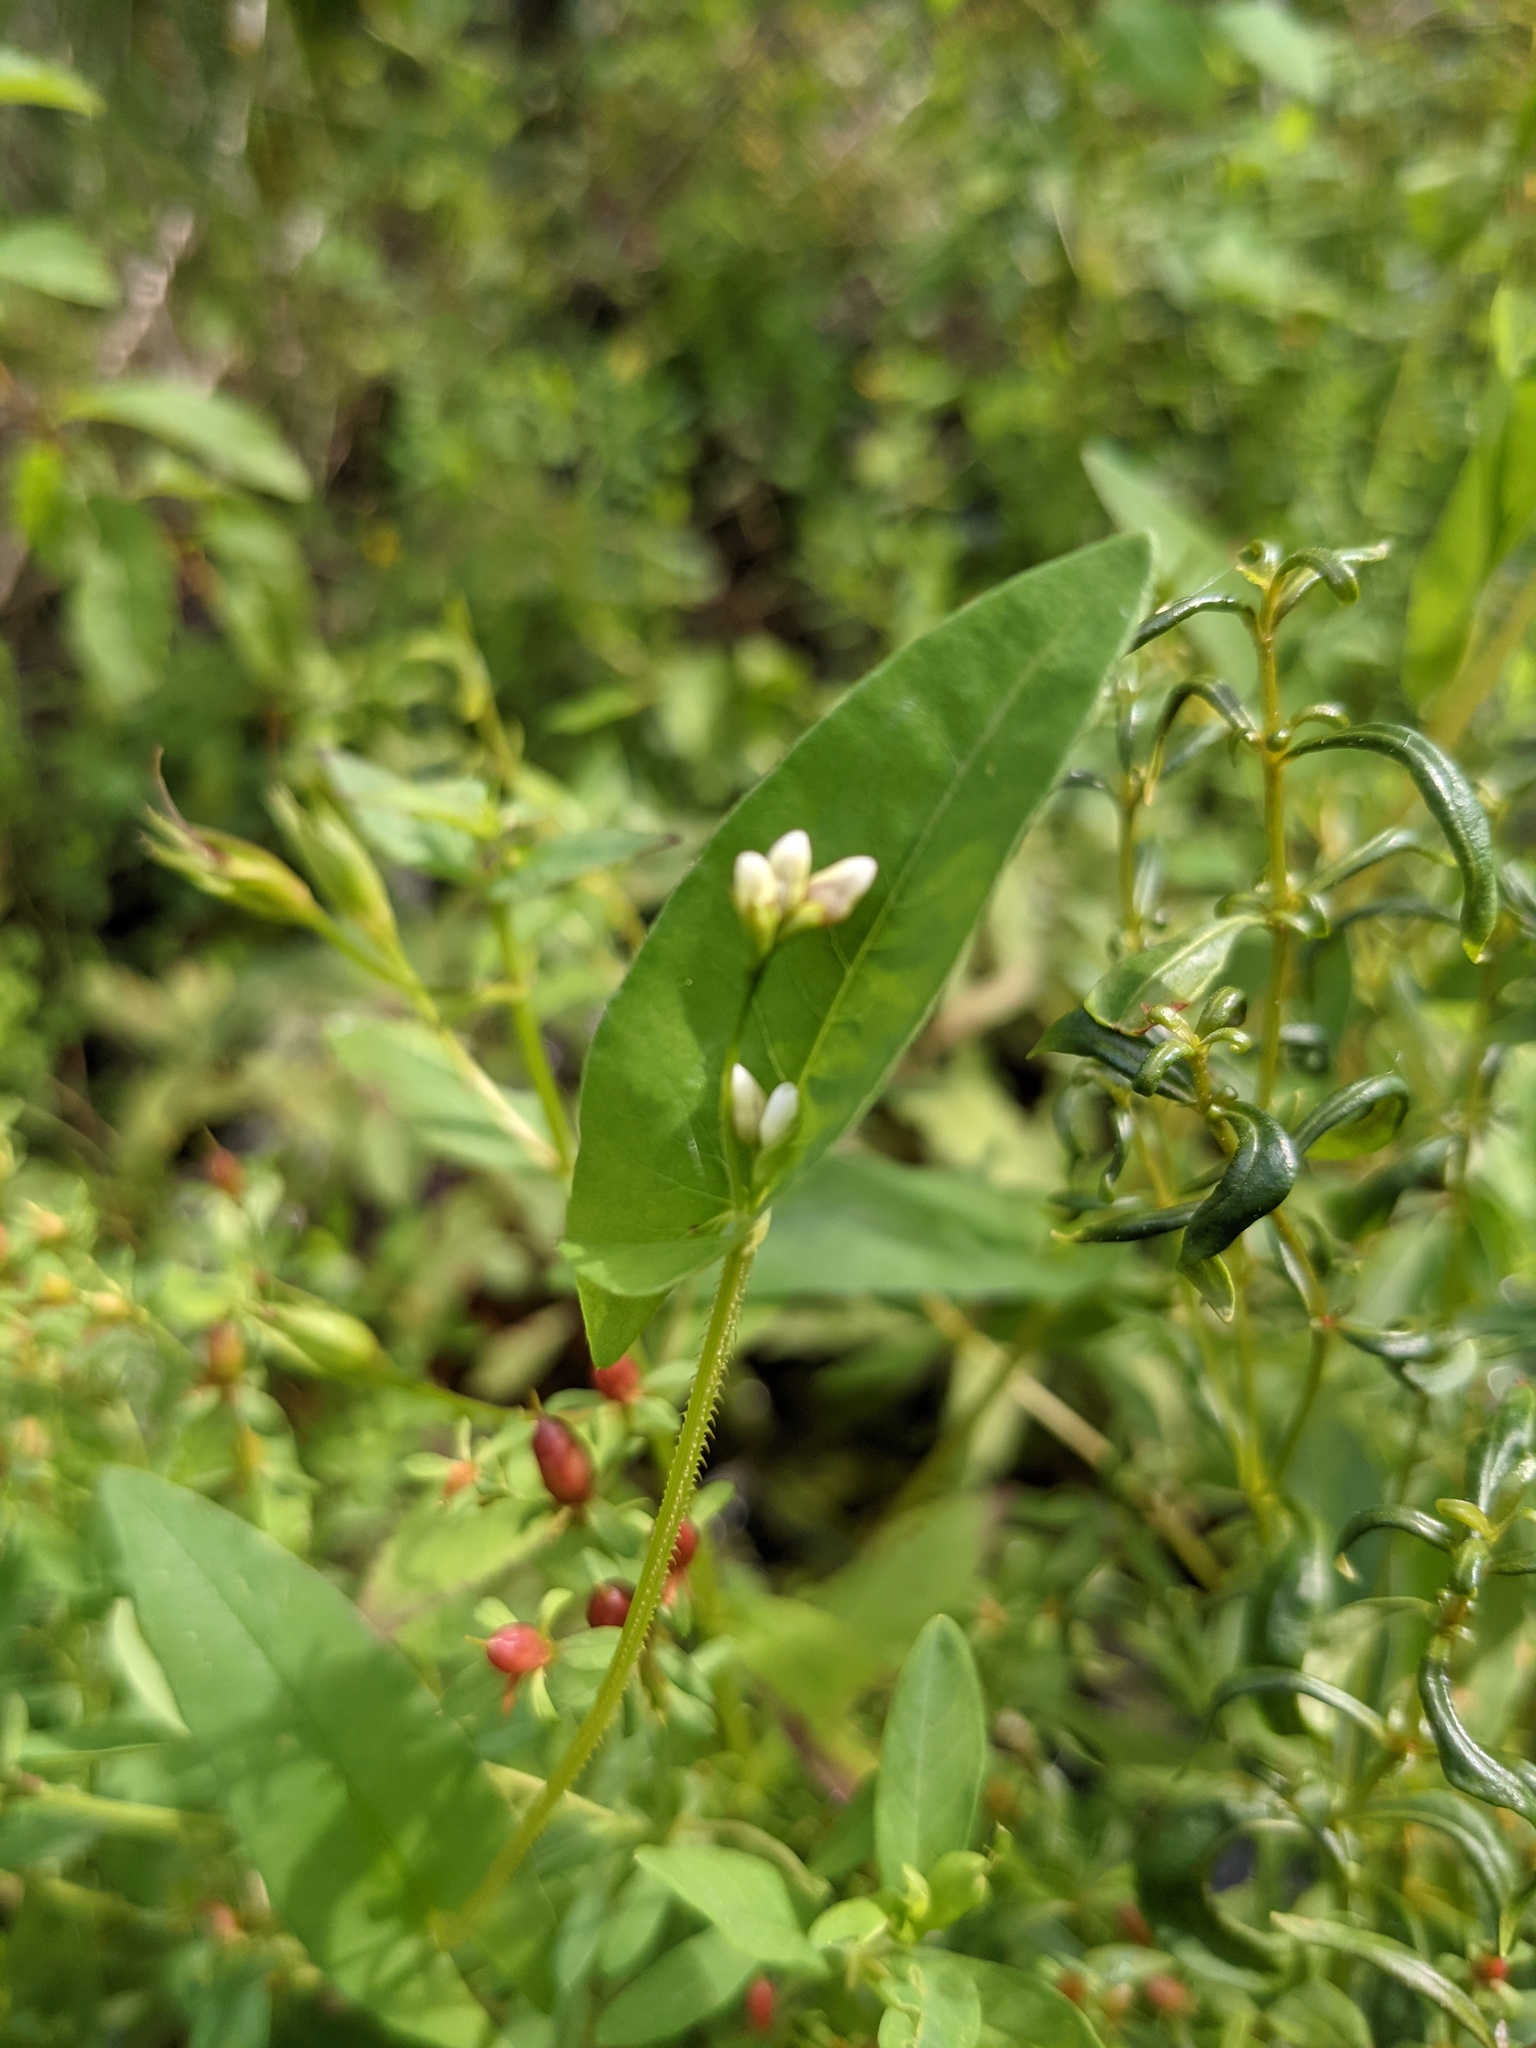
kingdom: Plantae
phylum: Tracheophyta
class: Magnoliopsida
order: Caryophyllales
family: Polygonaceae
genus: Persicaria
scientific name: Persicaria sagittata
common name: American tearthumb
